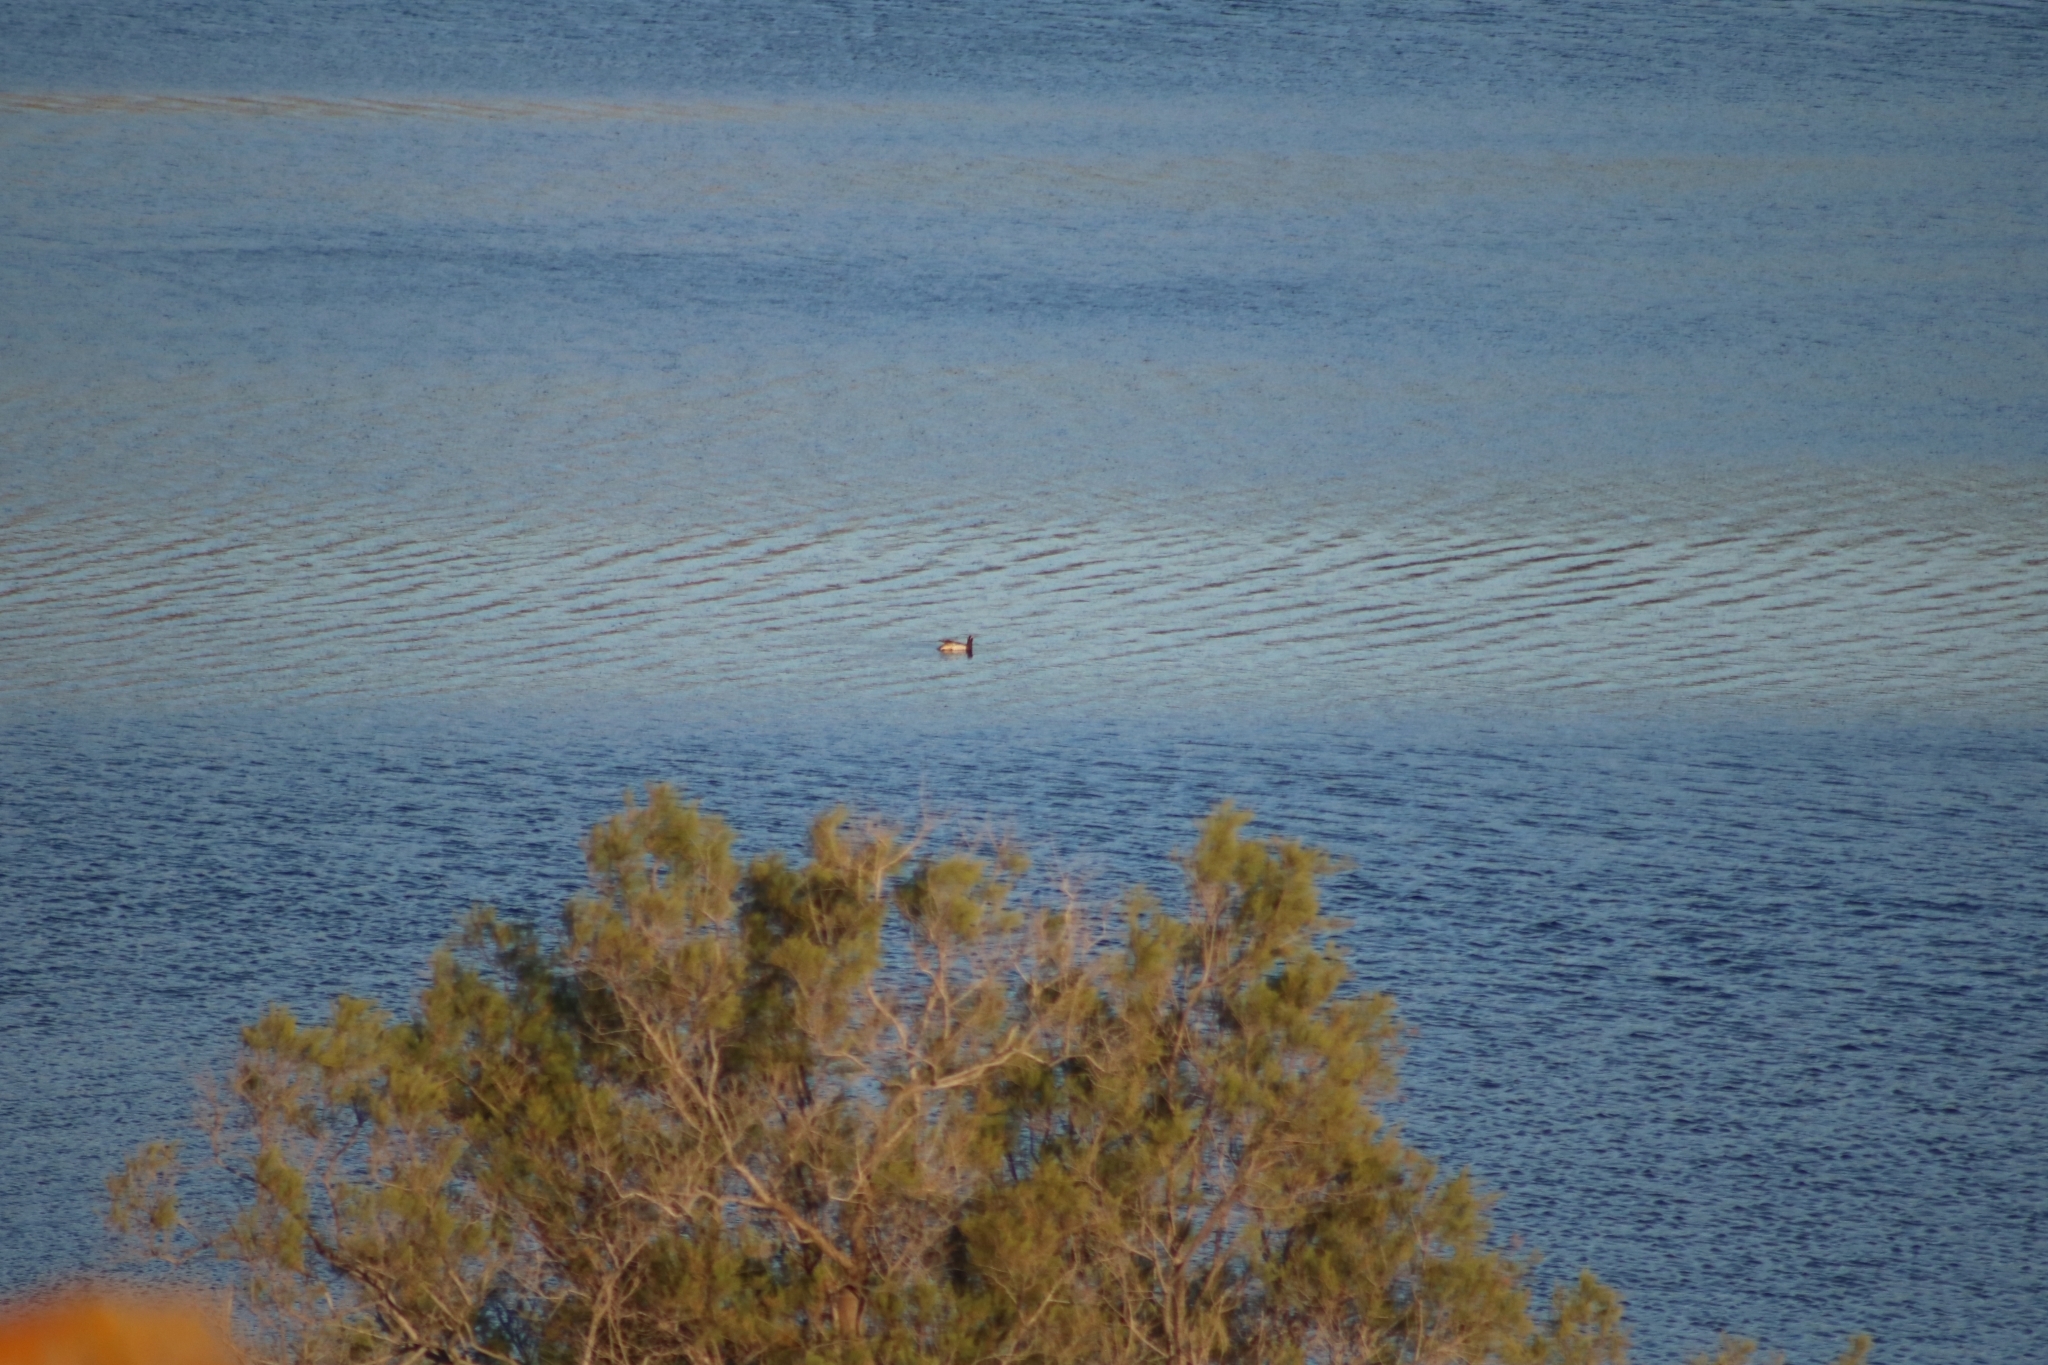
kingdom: Animalia
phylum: Chordata
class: Aves
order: Anseriformes
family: Anatidae
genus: Spatula
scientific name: Spatula querquedula
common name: Garganey
